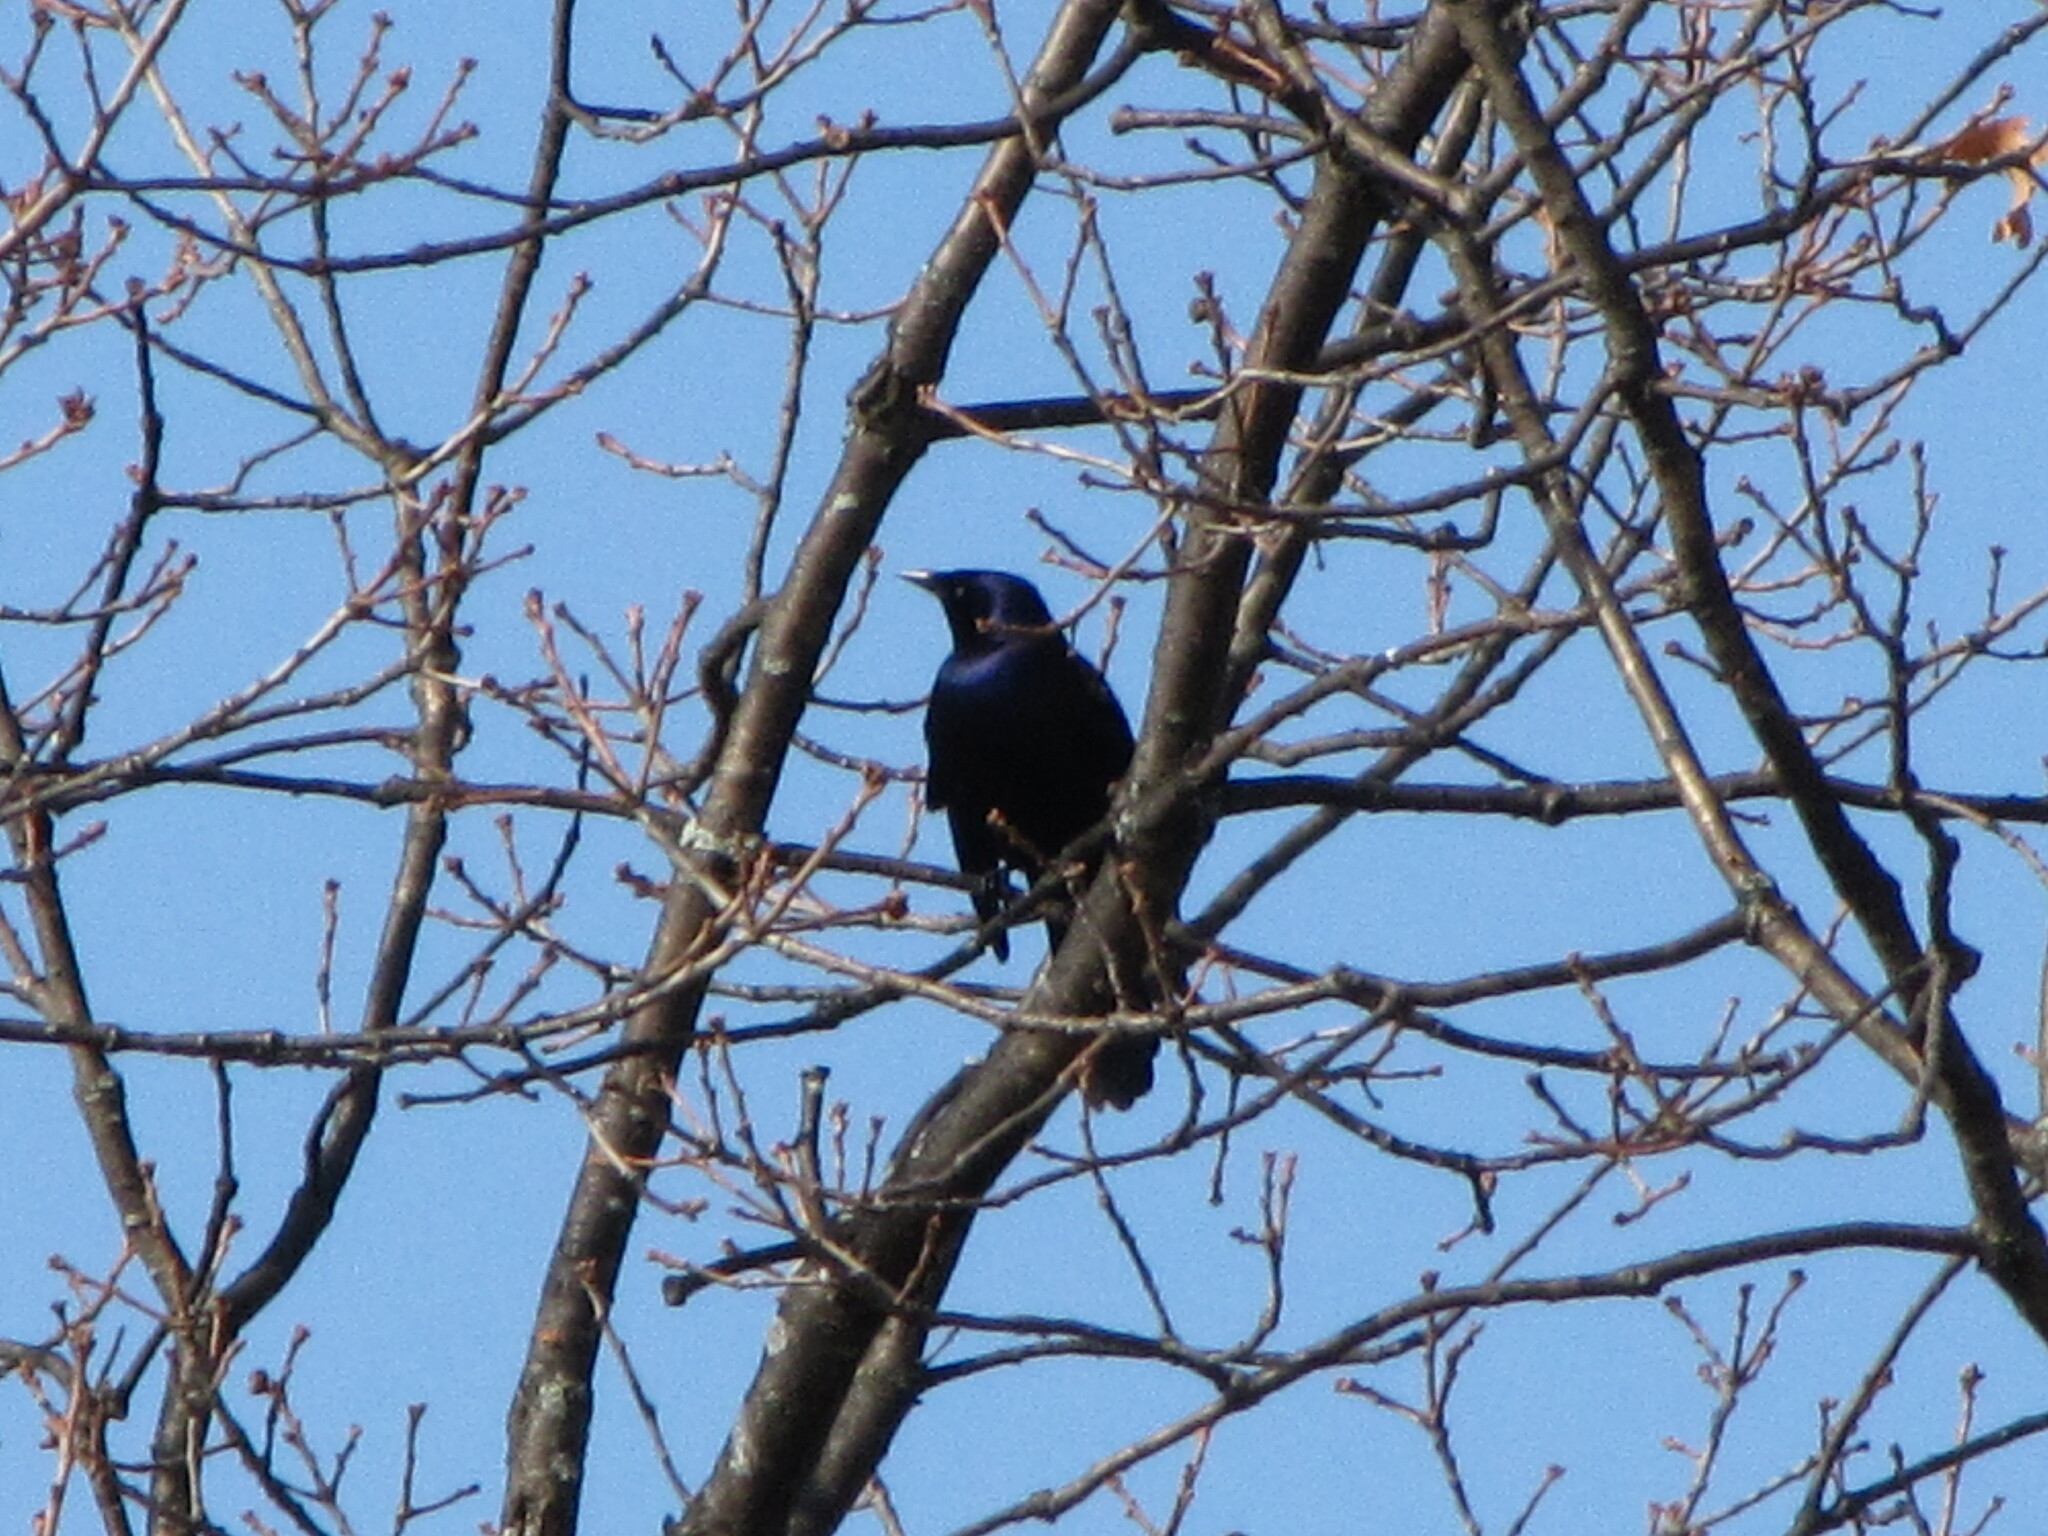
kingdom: Animalia
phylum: Chordata
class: Aves
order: Passeriformes
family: Icteridae
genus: Quiscalus
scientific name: Quiscalus quiscula
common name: Common grackle
